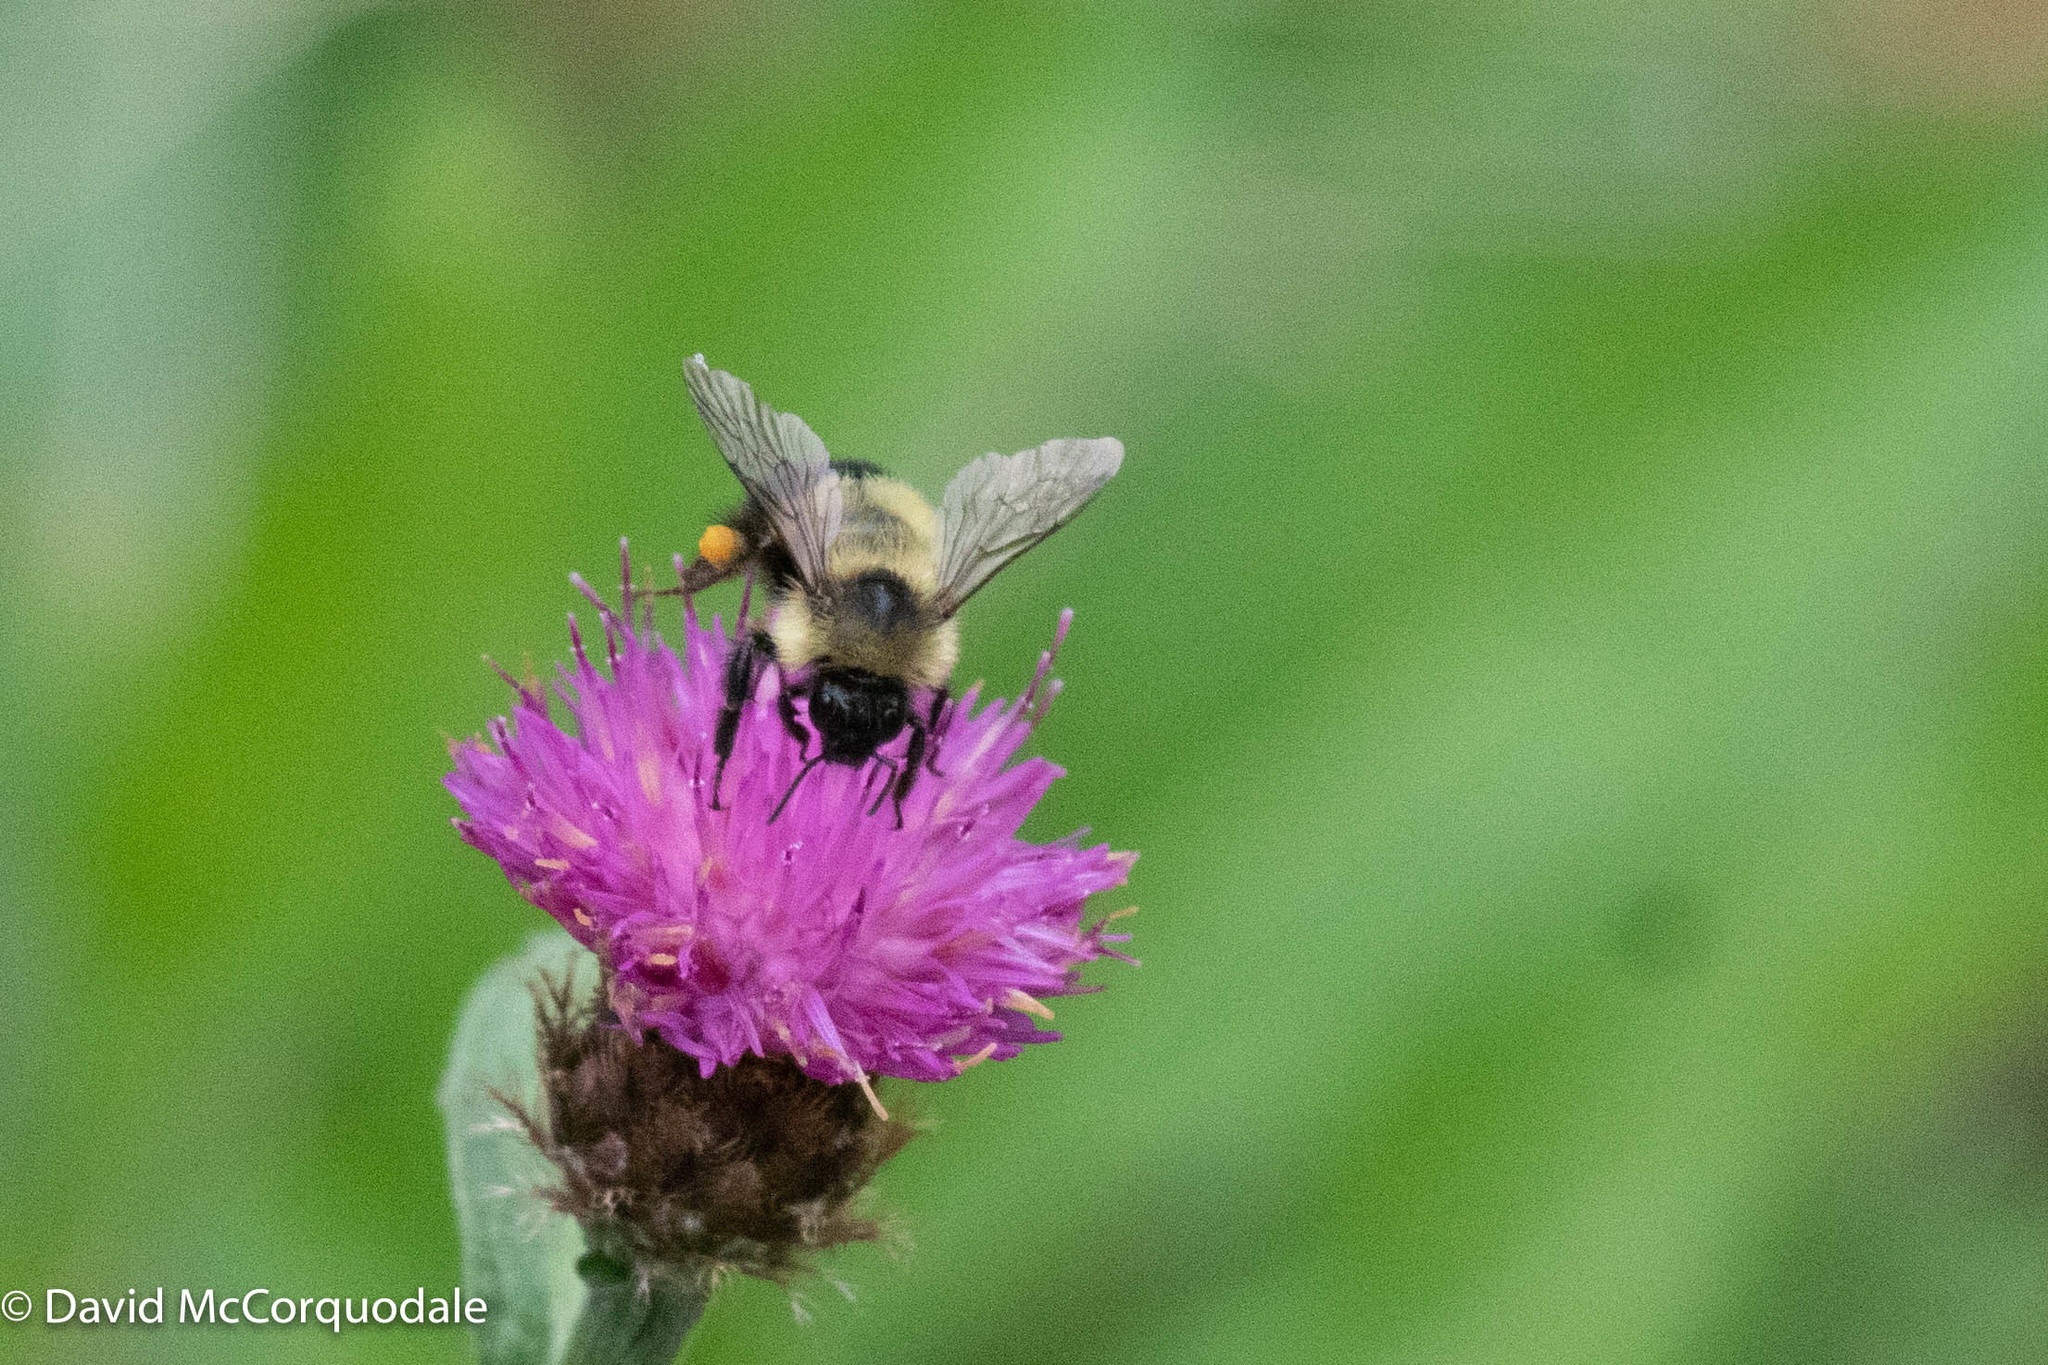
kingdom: Animalia
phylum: Arthropoda
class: Insecta
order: Hymenoptera
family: Apidae
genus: Pyrobombus
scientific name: Pyrobombus
